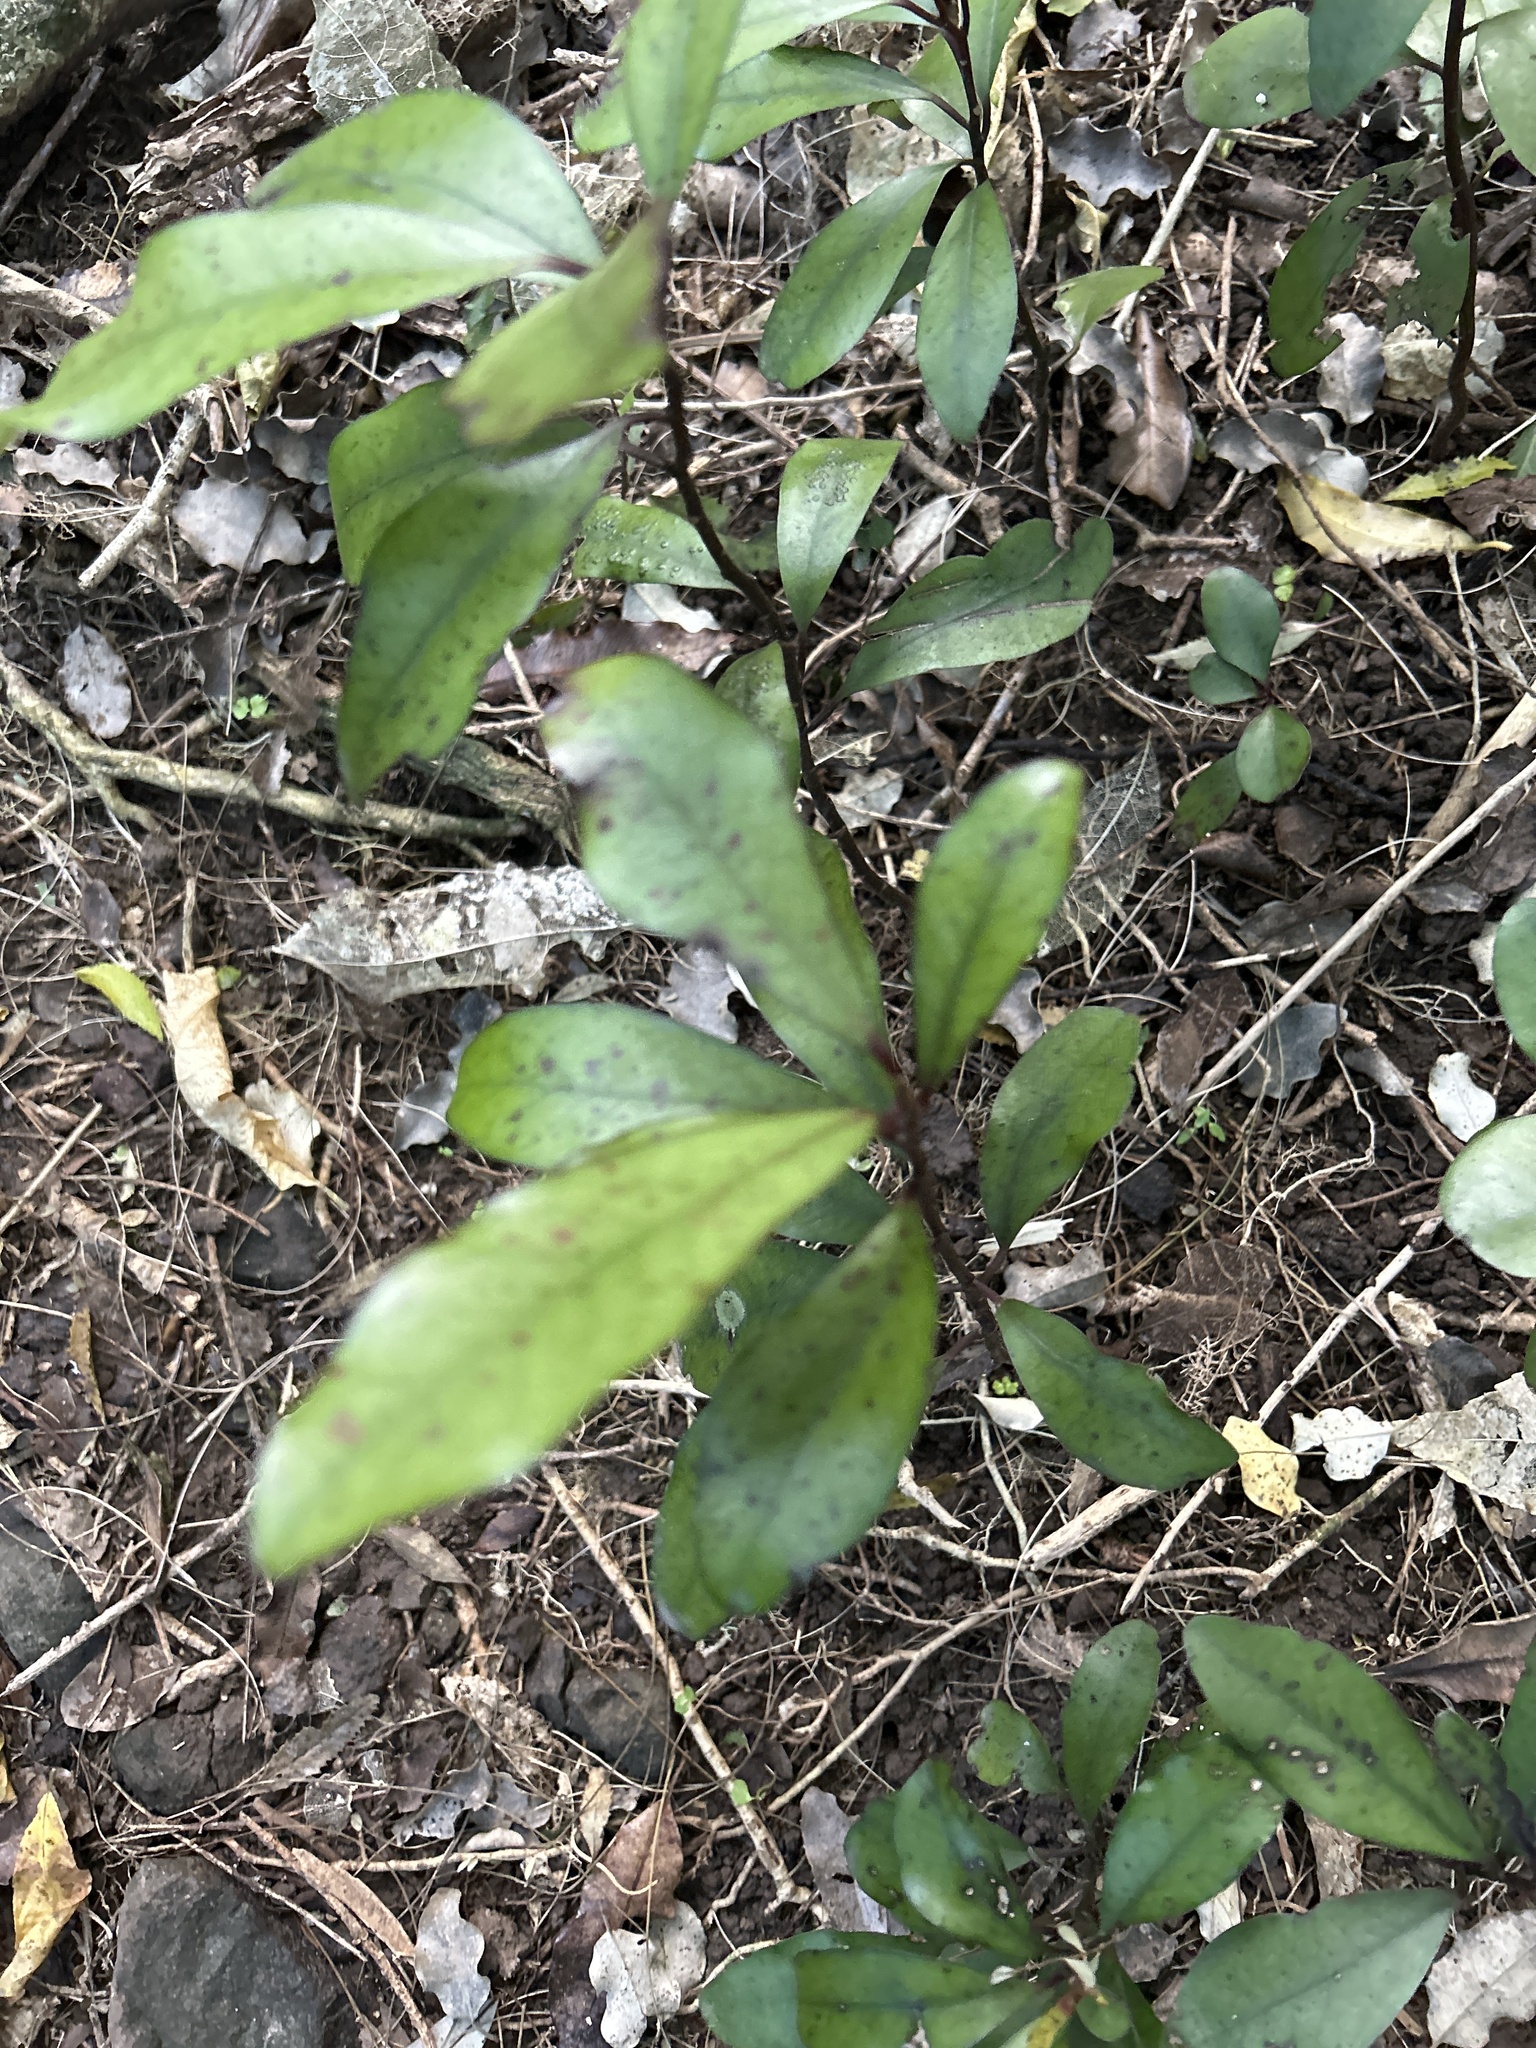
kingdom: Plantae
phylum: Tracheophyta
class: Magnoliopsida
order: Canellales
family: Winteraceae
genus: Pseudowintera
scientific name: Pseudowintera colorata
